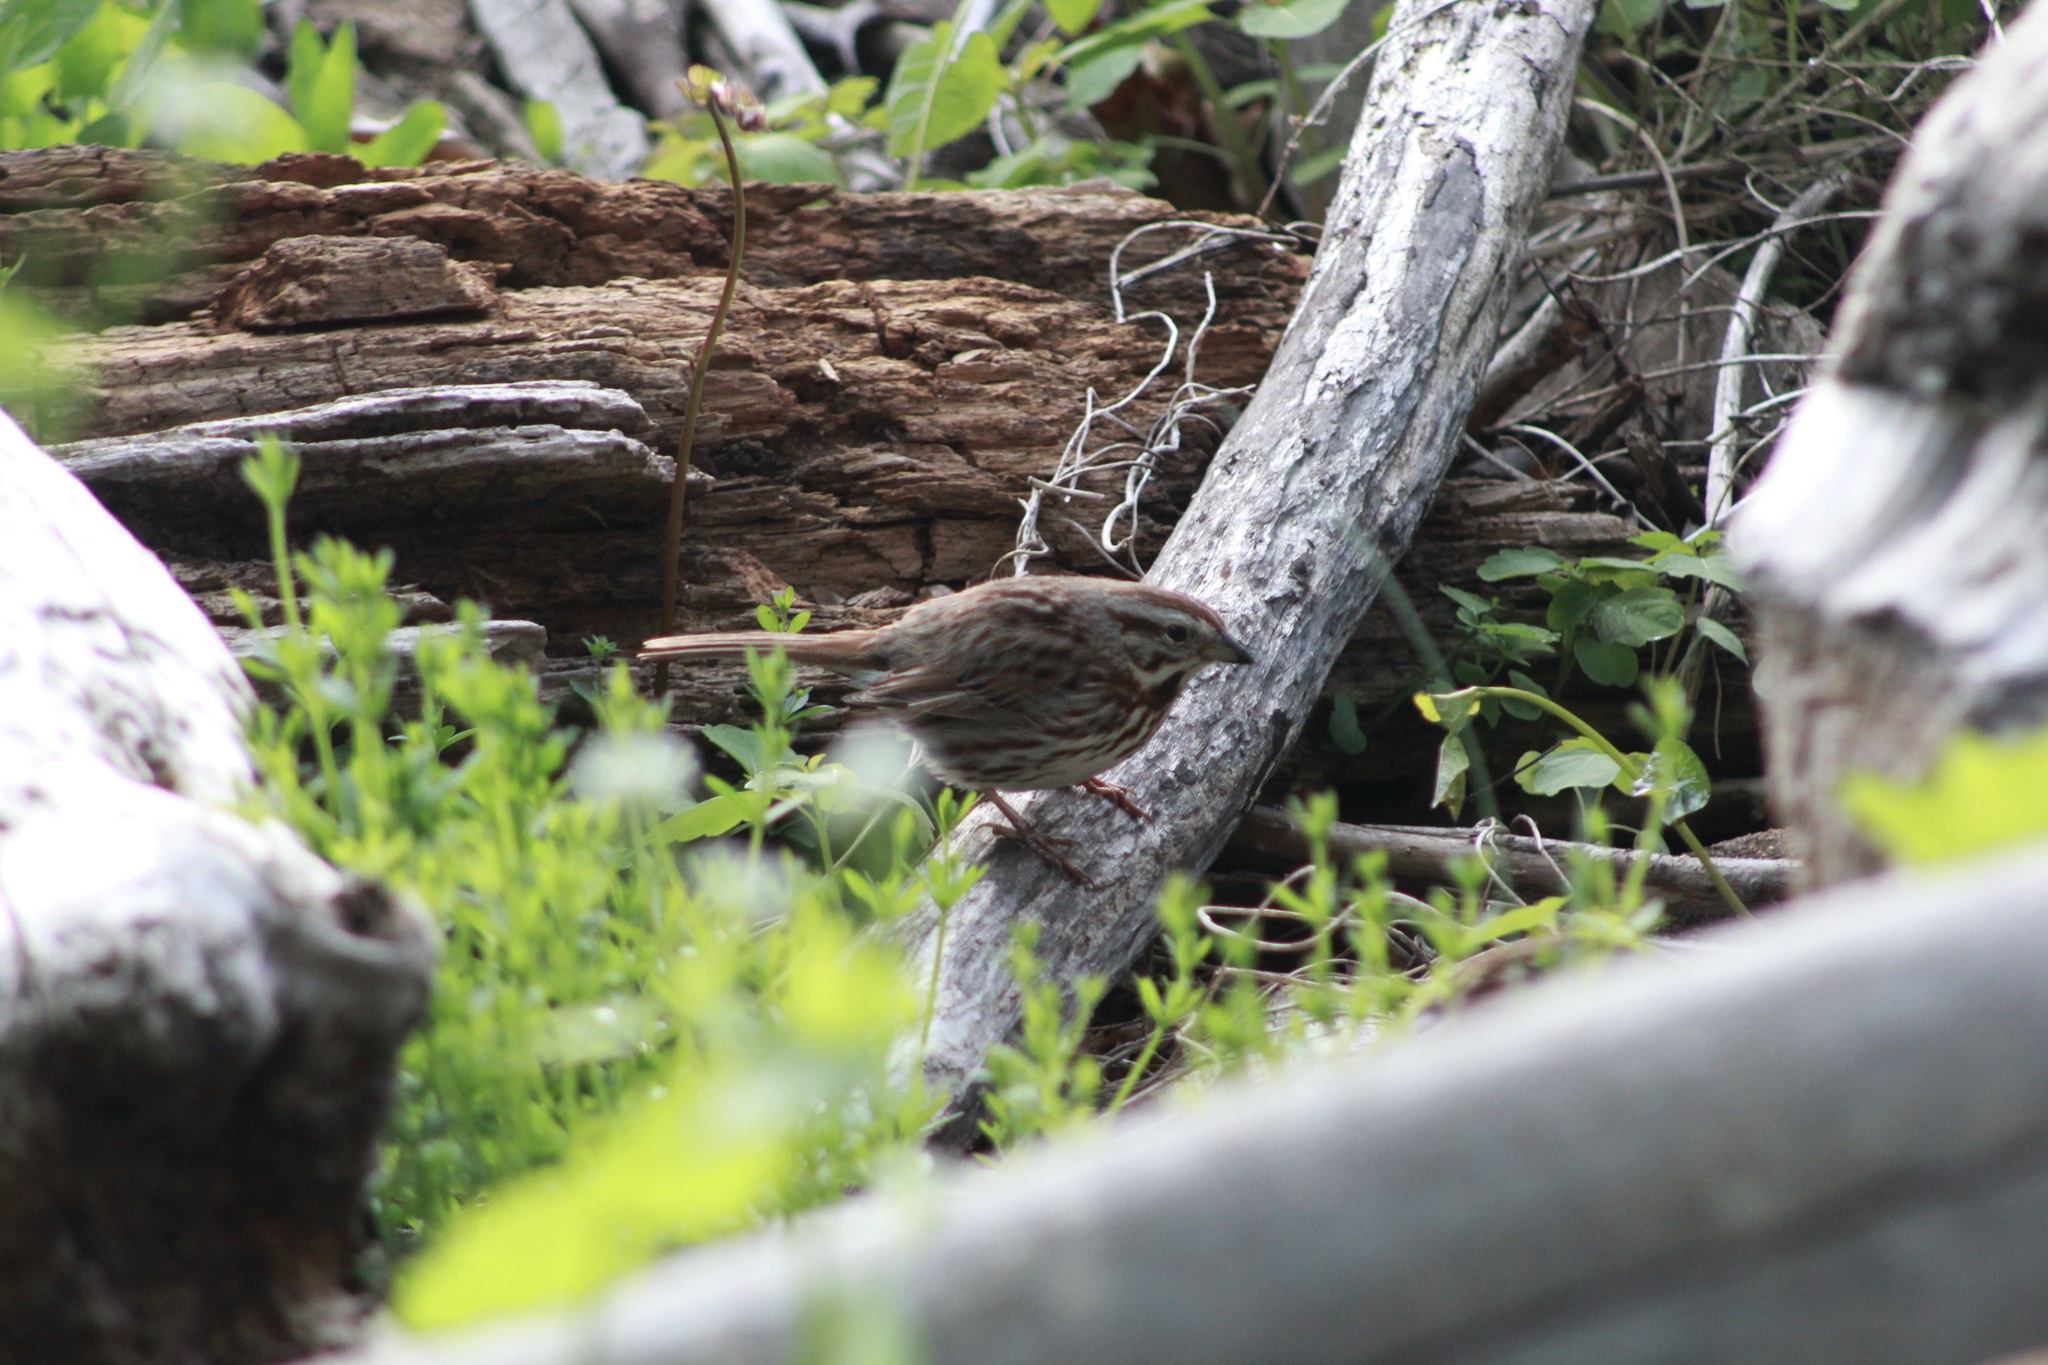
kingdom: Animalia
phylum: Chordata
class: Aves
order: Passeriformes
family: Passerellidae
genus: Melospiza
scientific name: Melospiza melodia
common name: Song sparrow
